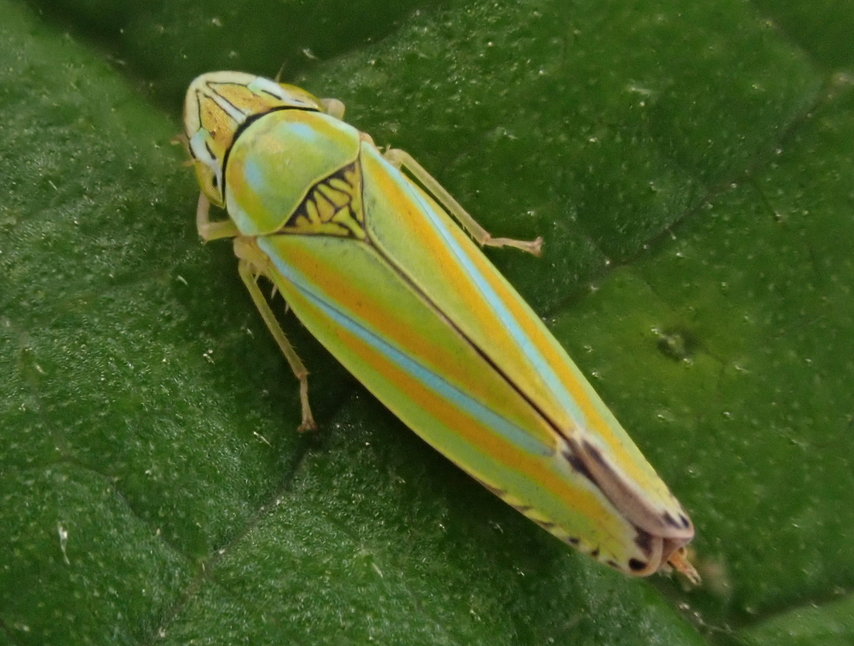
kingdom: Animalia
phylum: Arthropoda
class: Insecta
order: Hemiptera
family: Cicadellidae
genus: Graphocephala
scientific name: Graphocephala versuta
